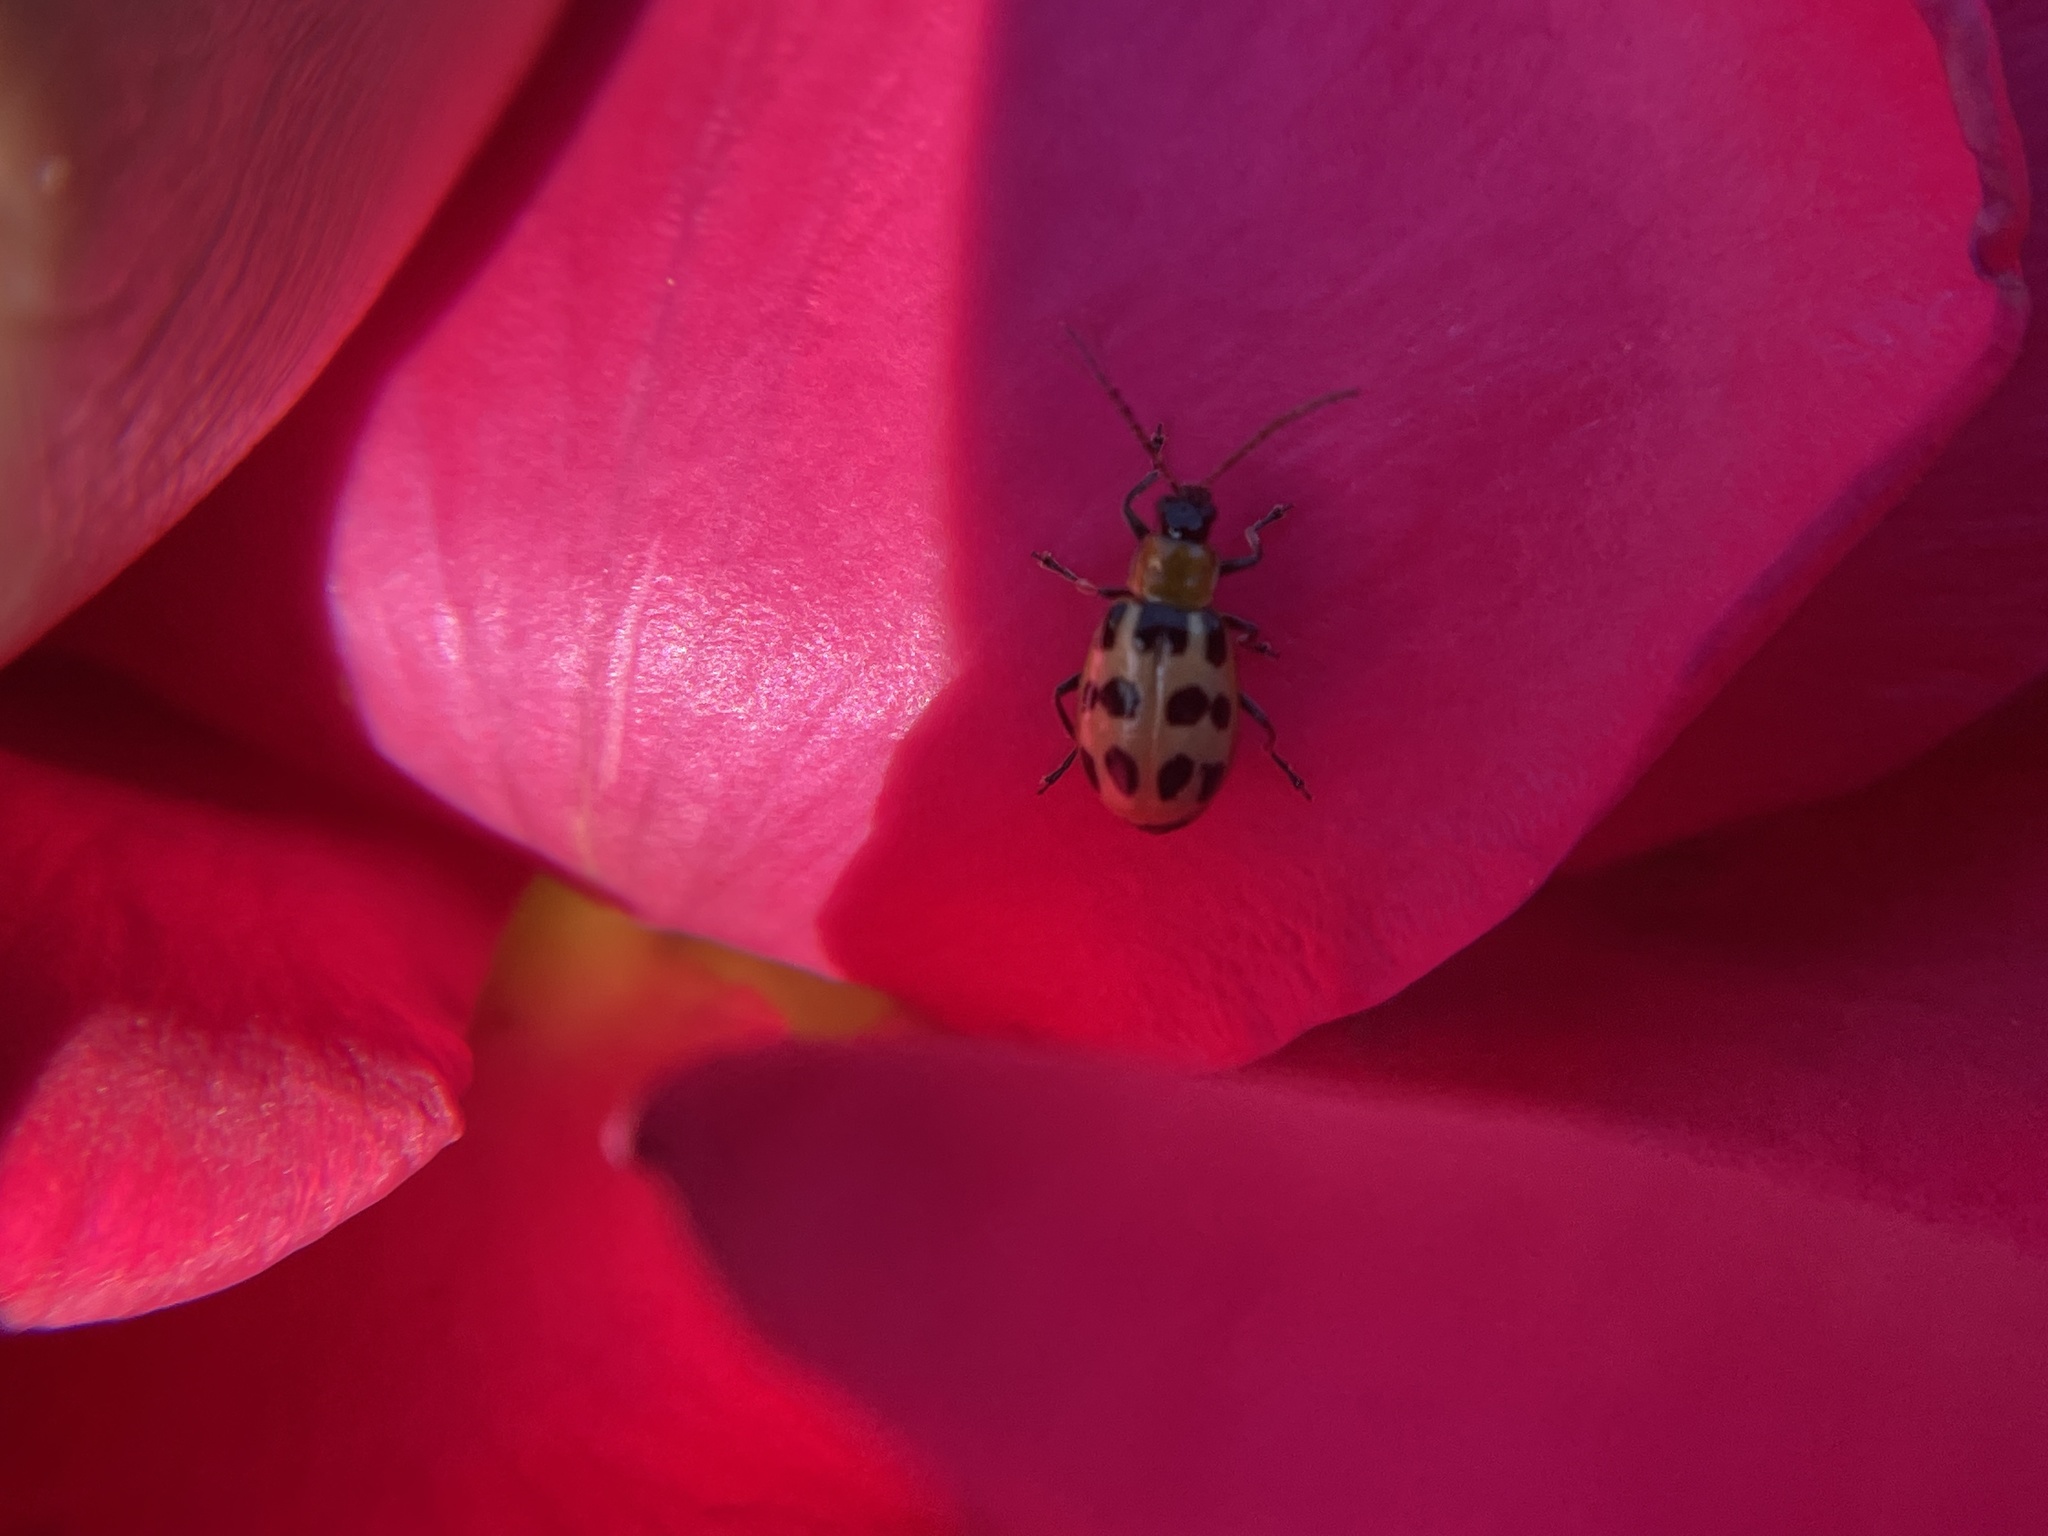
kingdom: Animalia
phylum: Arthropoda
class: Insecta
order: Coleoptera
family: Chrysomelidae
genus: Diabrotica
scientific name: Diabrotica undecimpunctata
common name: Spotted cucumber beetle
